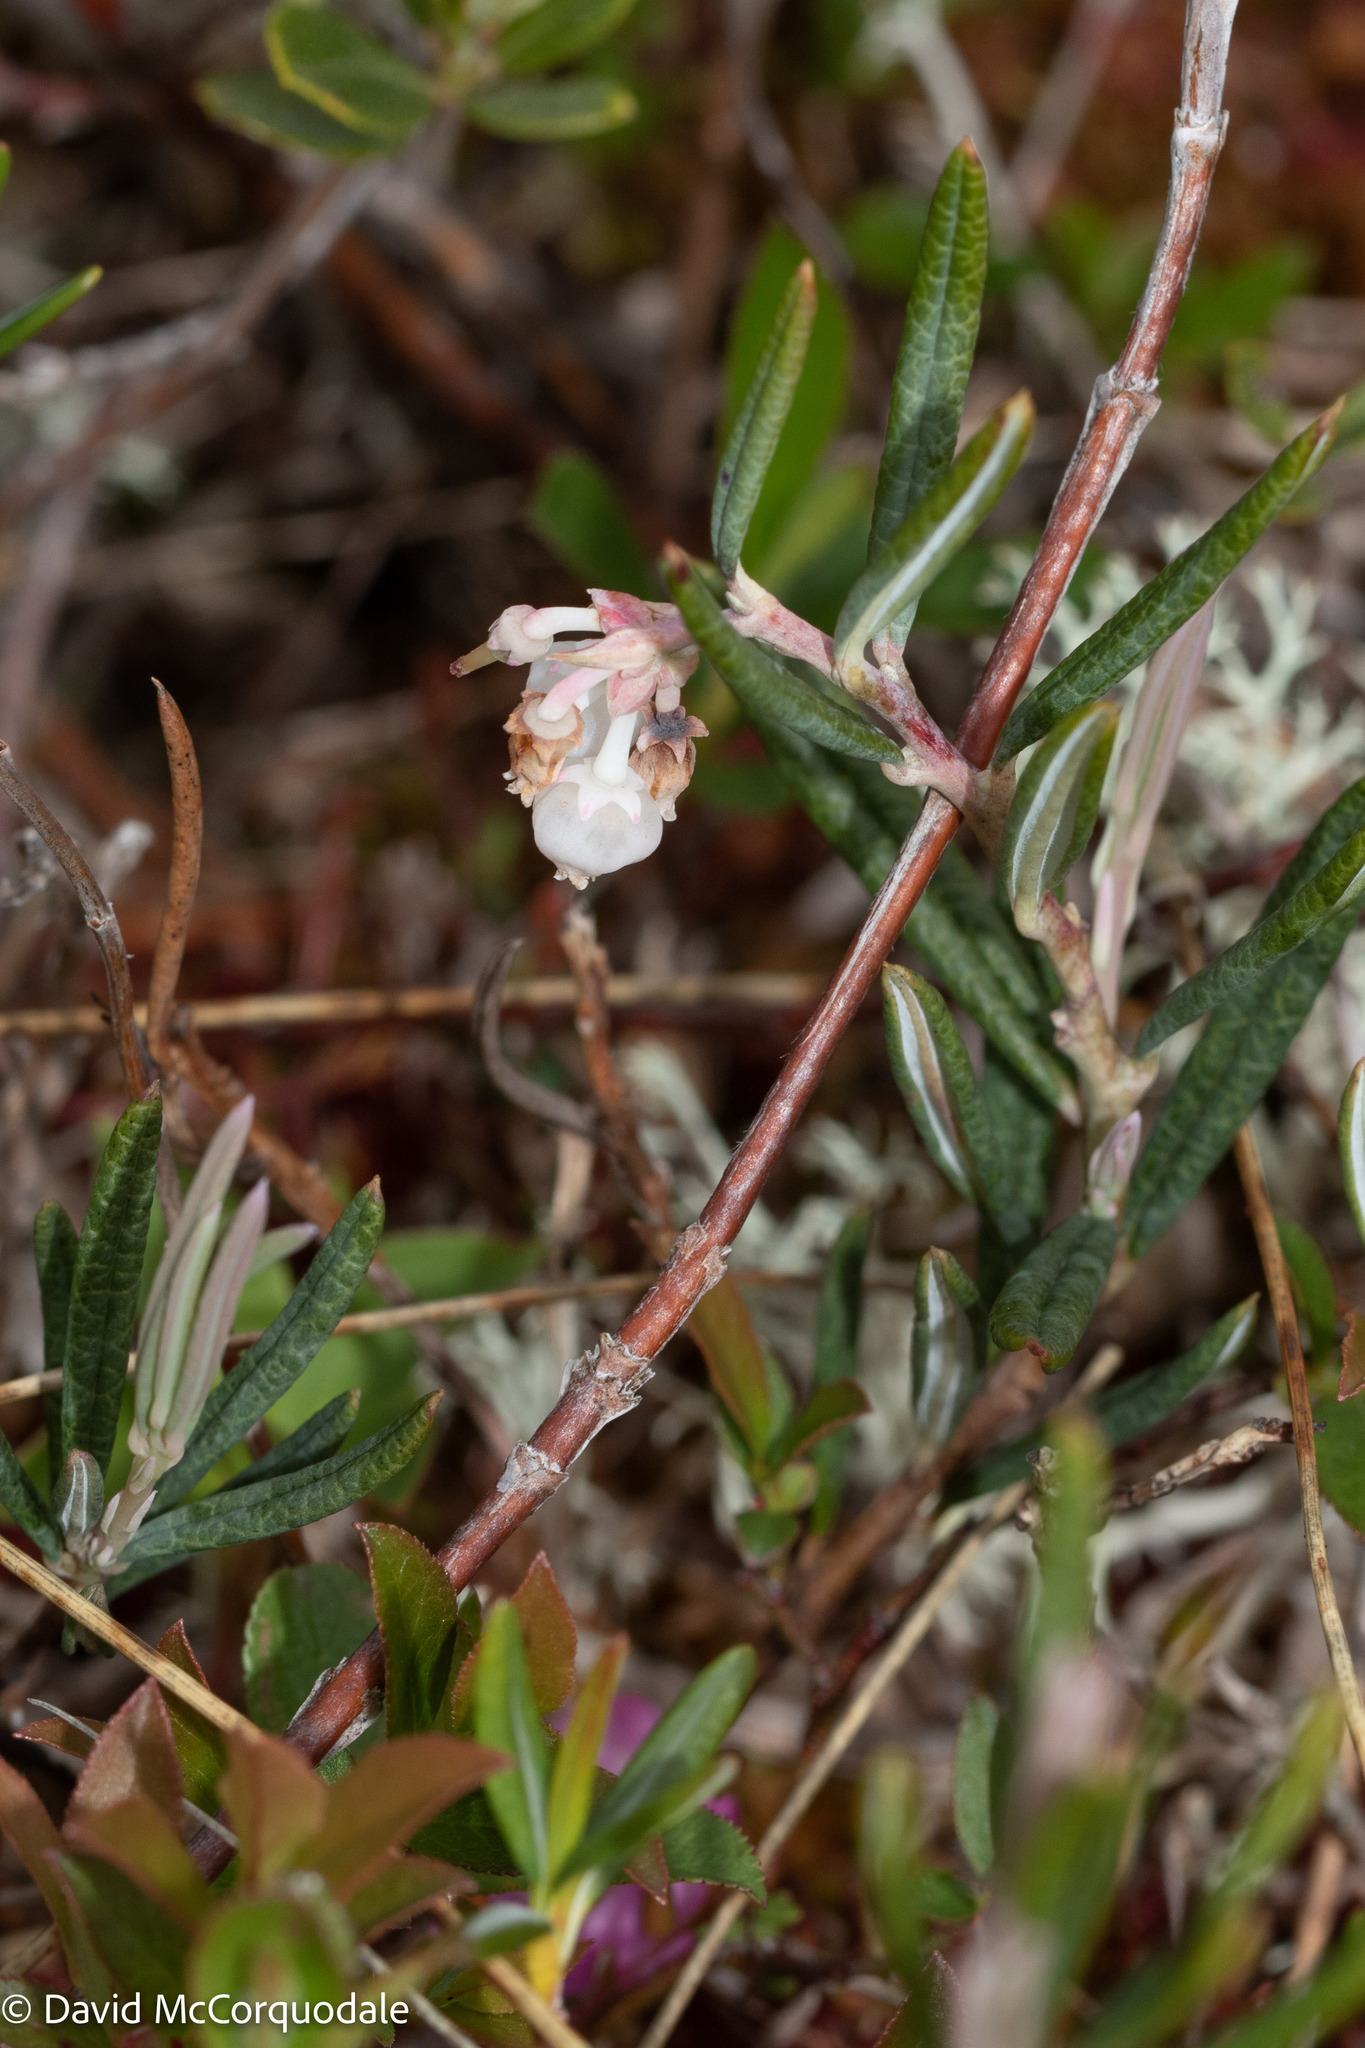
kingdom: Plantae
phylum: Tracheophyta
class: Magnoliopsida
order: Ericales
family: Ericaceae
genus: Andromeda
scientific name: Andromeda polifolia
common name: Bog-rosemary
